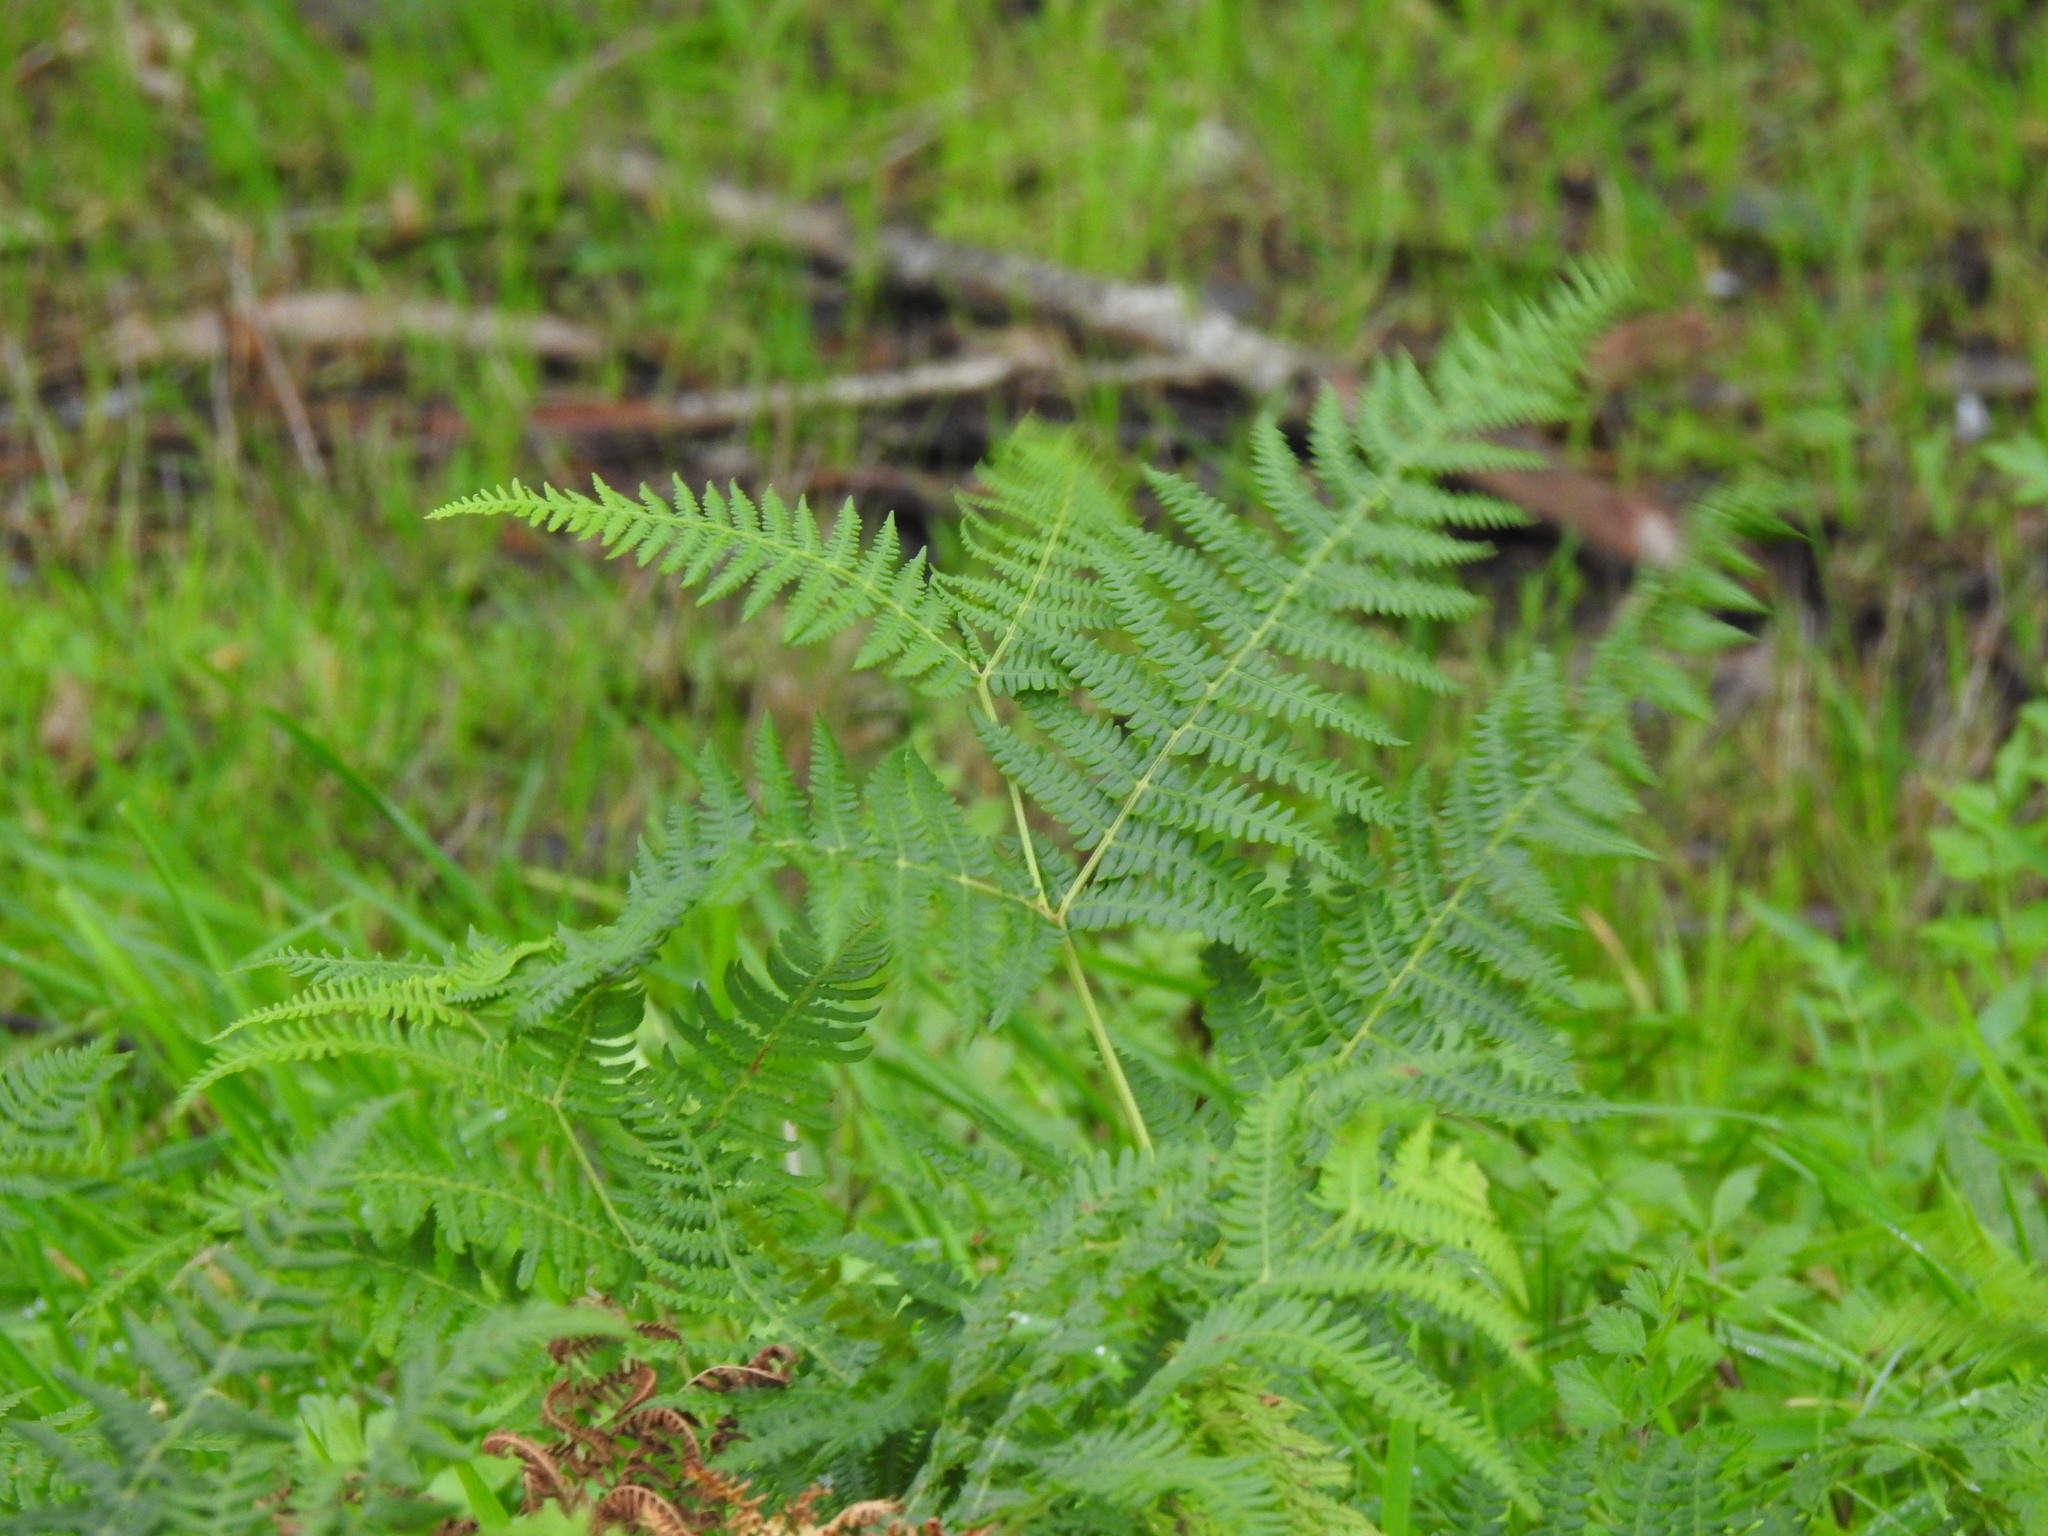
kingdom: Plantae
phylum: Tracheophyta
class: Polypodiopsida
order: Polypodiales
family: Dennstaedtiaceae
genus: Pteridium
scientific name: Pteridium aquilinum
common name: Bracken
